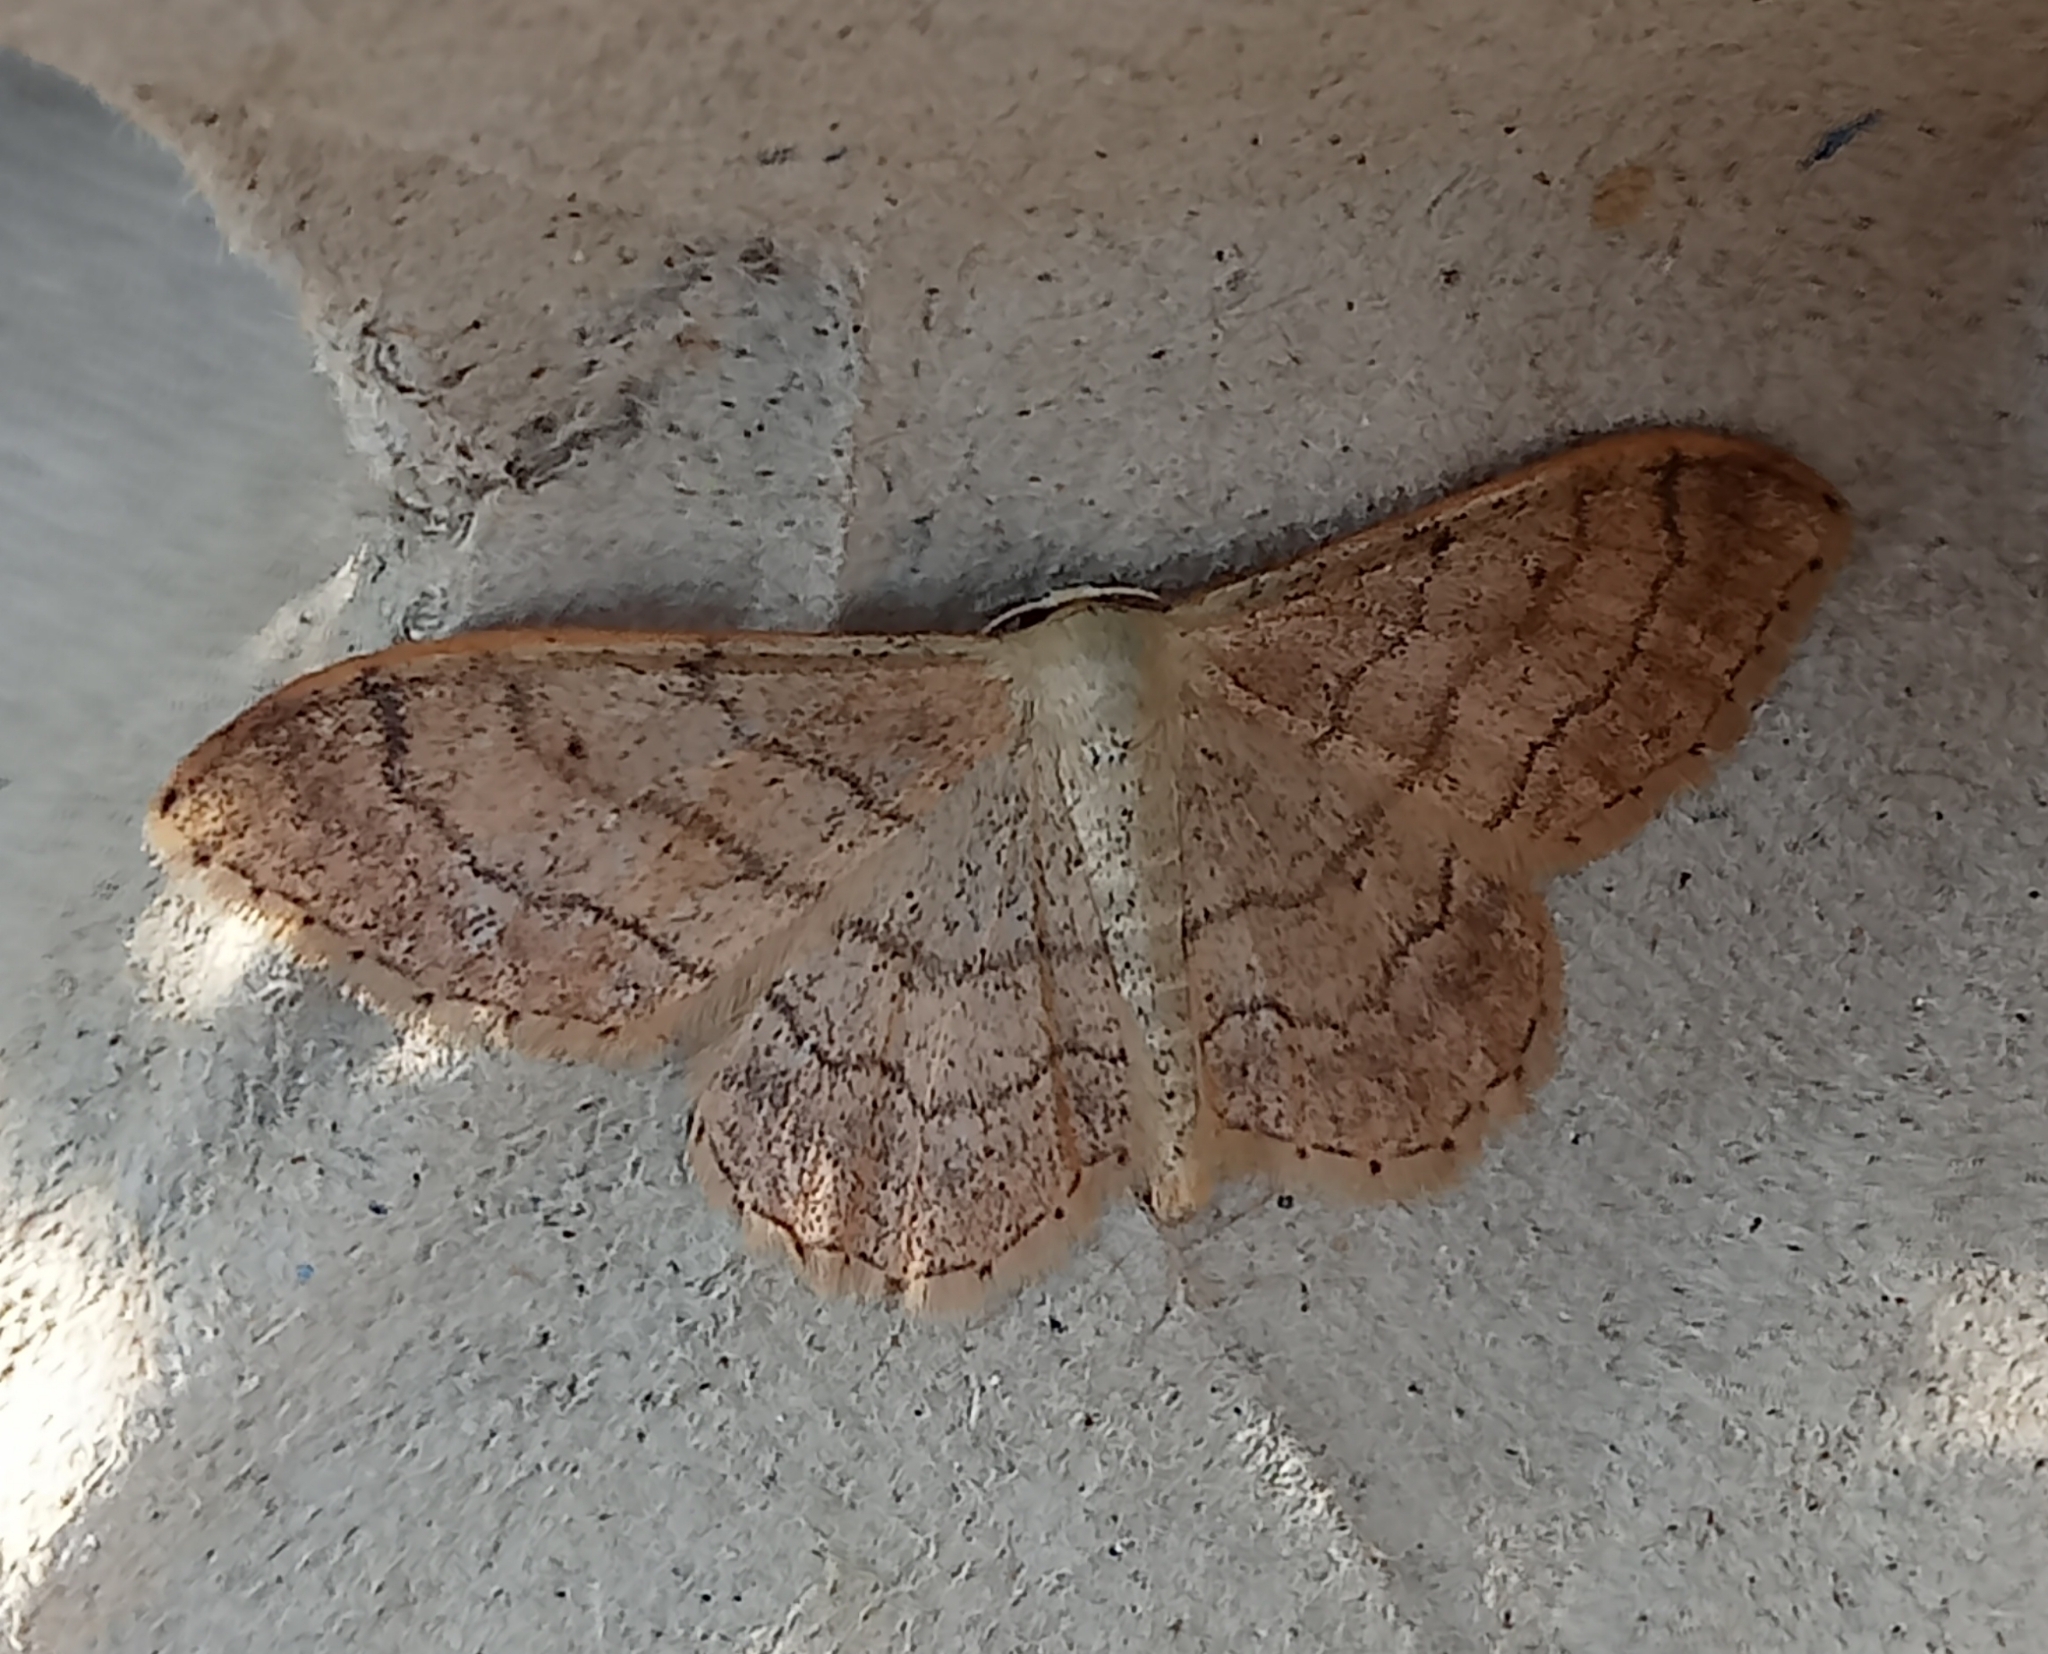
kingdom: Animalia
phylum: Arthropoda
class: Insecta
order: Lepidoptera
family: Geometridae
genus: Idaea
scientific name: Idaea aversata
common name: Riband wave
